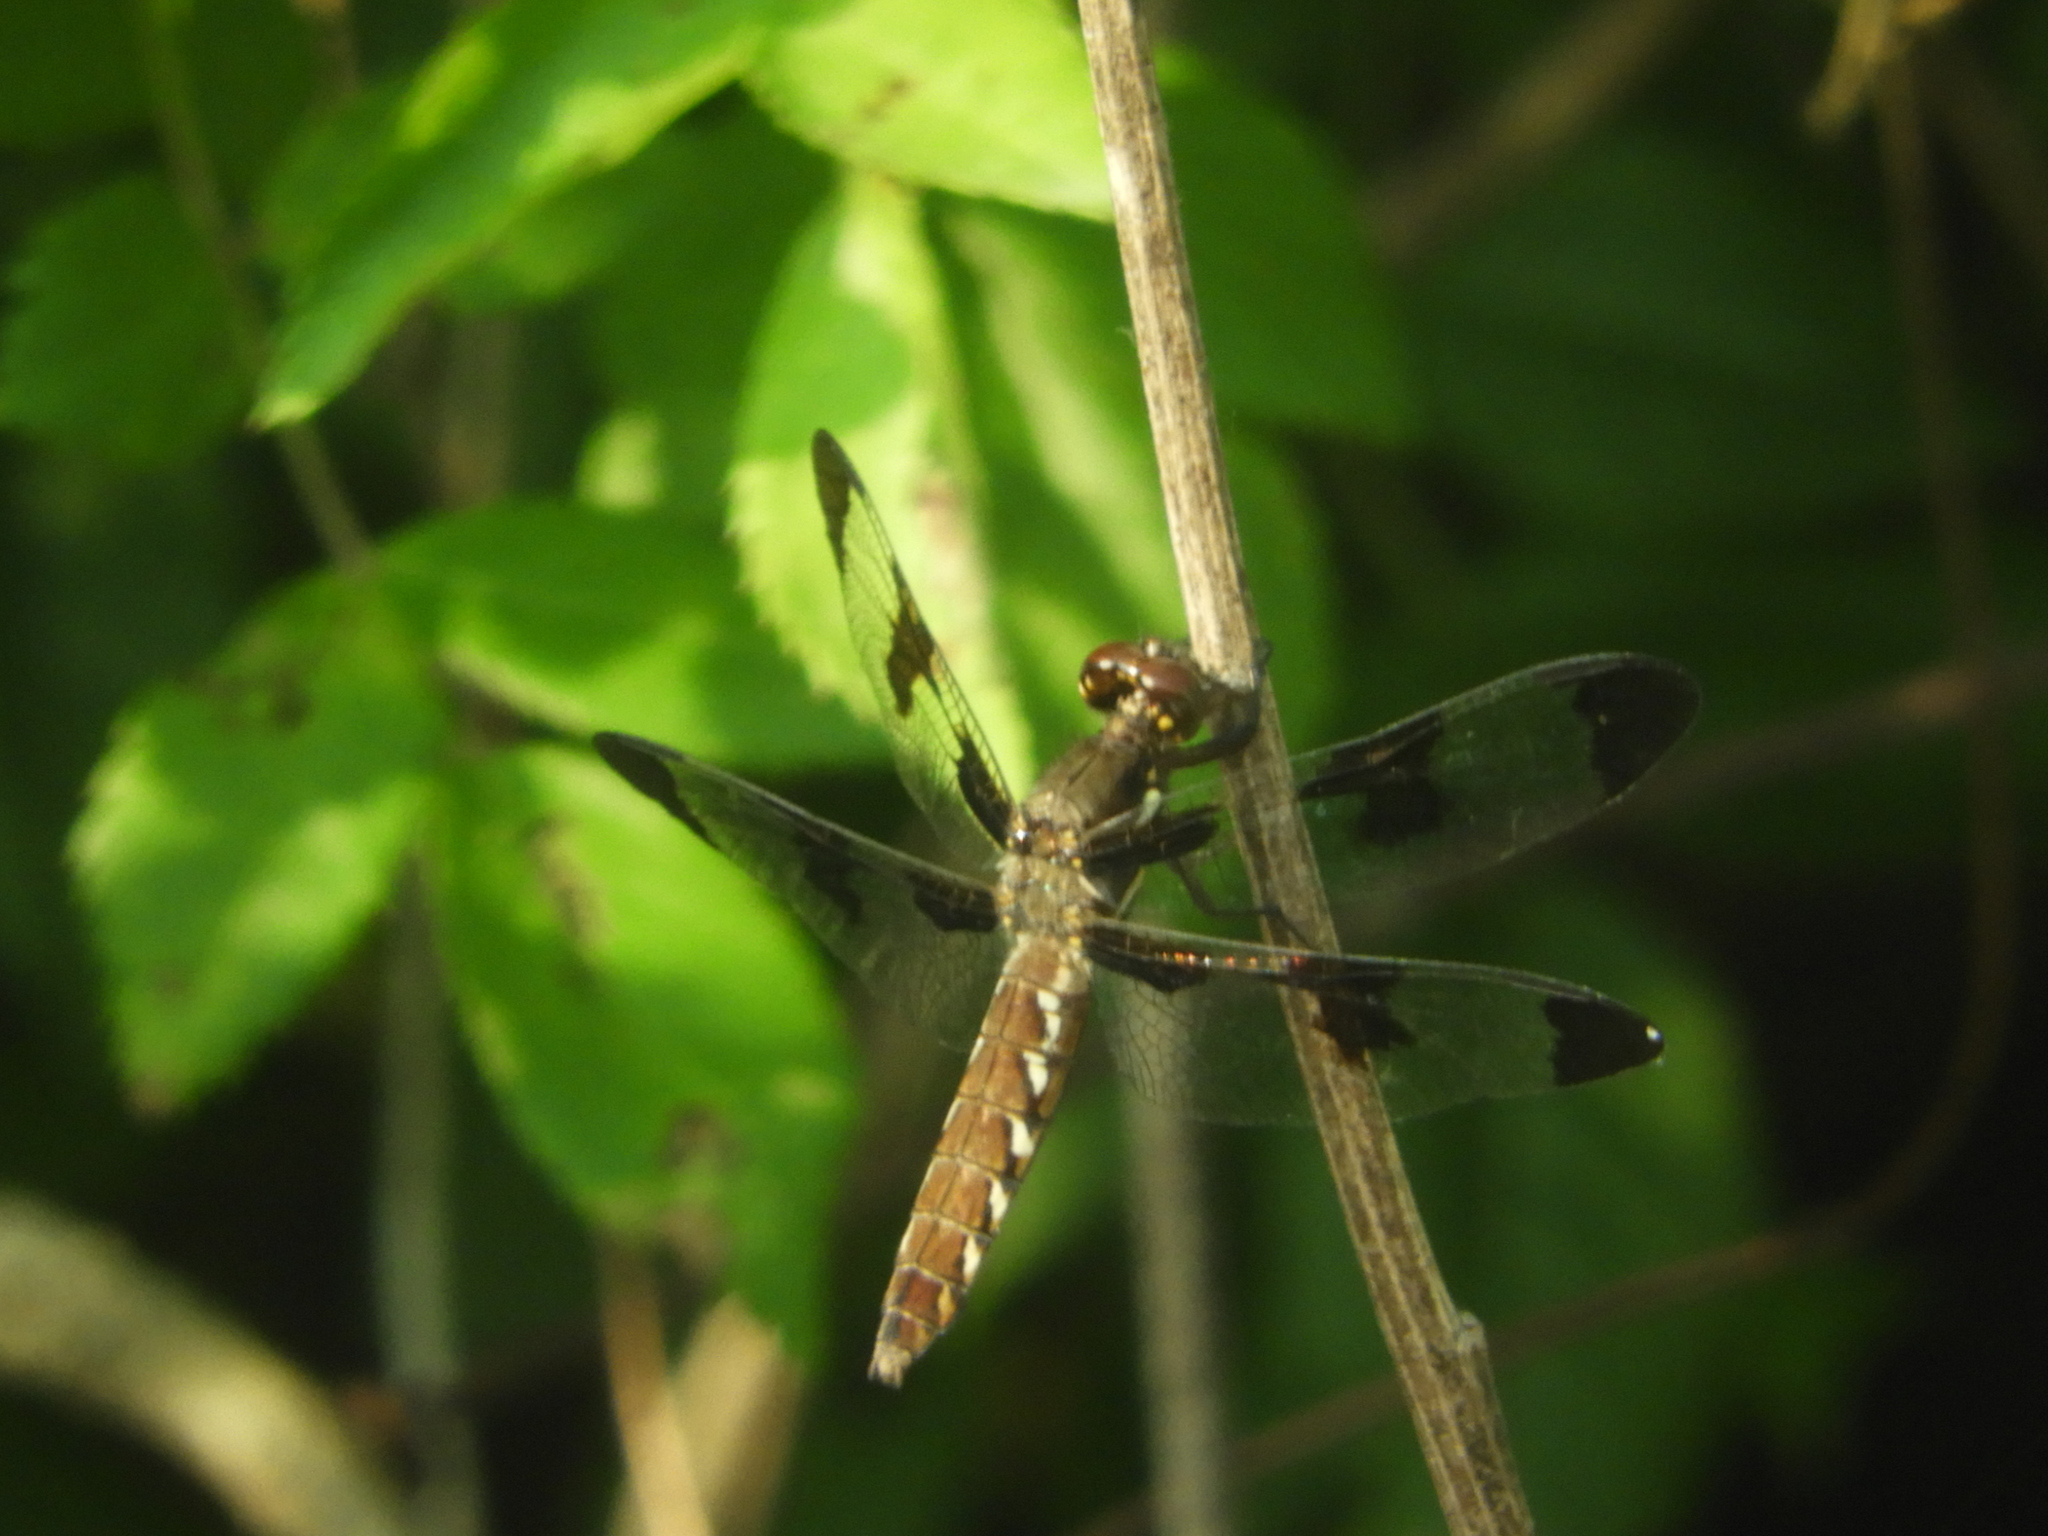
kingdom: Animalia
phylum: Arthropoda
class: Insecta
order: Odonata
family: Libellulidae
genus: Plathemis
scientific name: Plathemis lydia
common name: Common whitetail
